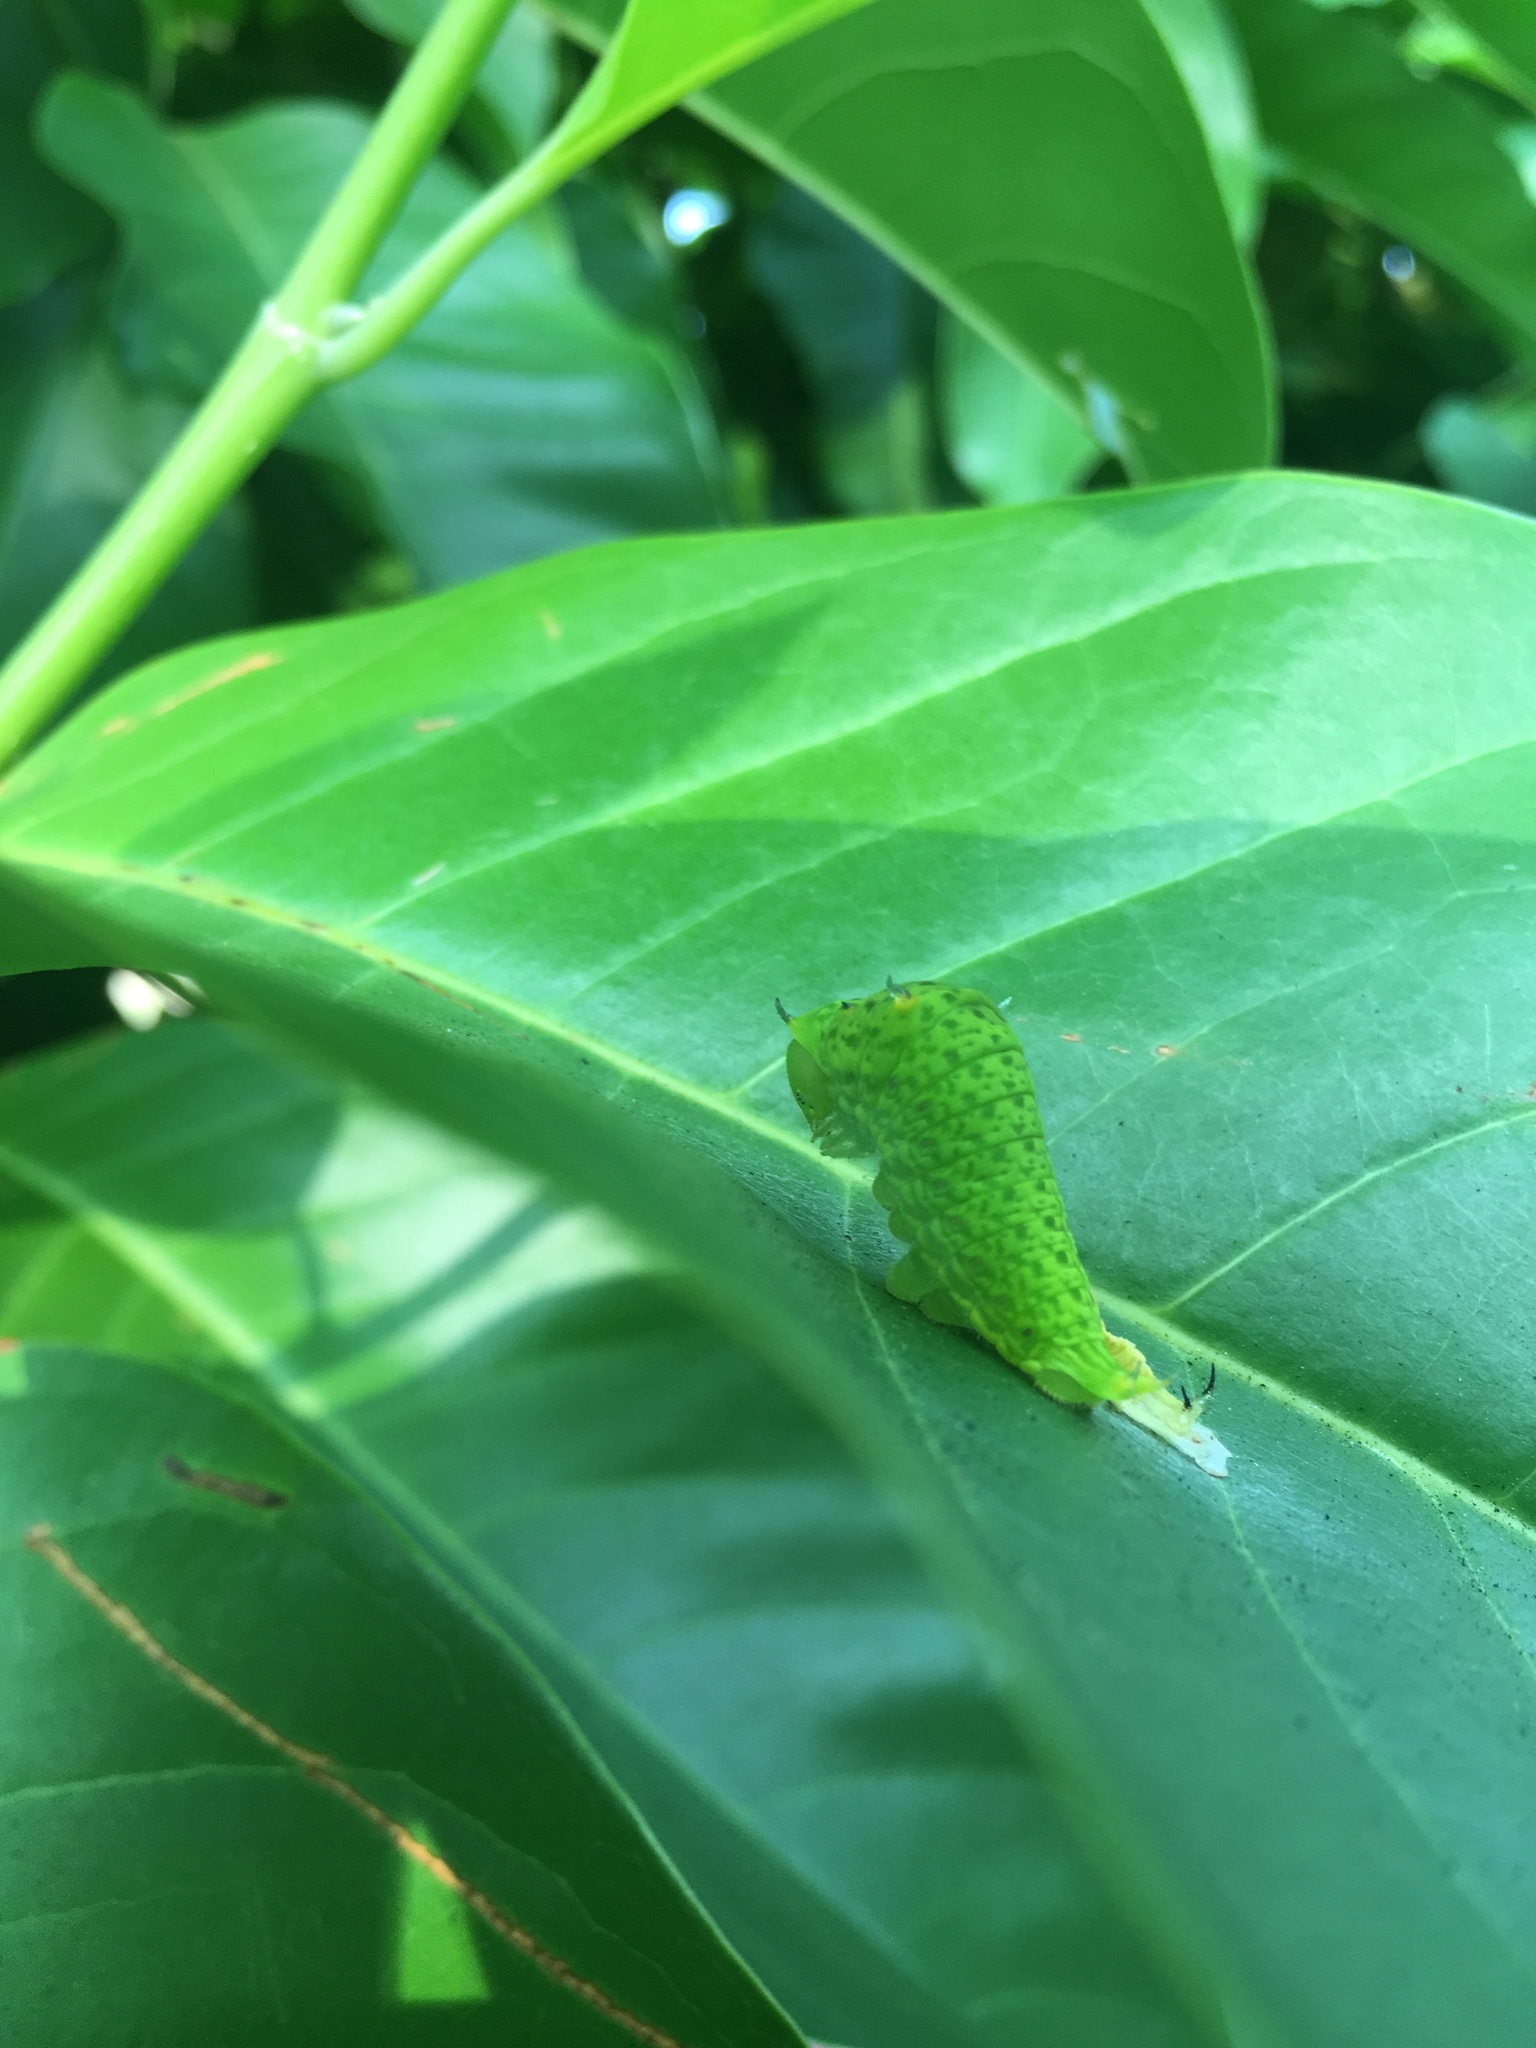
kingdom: Animalia
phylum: Arthropoda
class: Insecta
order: Lepidoptera
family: Papilionidae
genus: Graphium
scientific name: Graphium agamemnon
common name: Tailed jay
